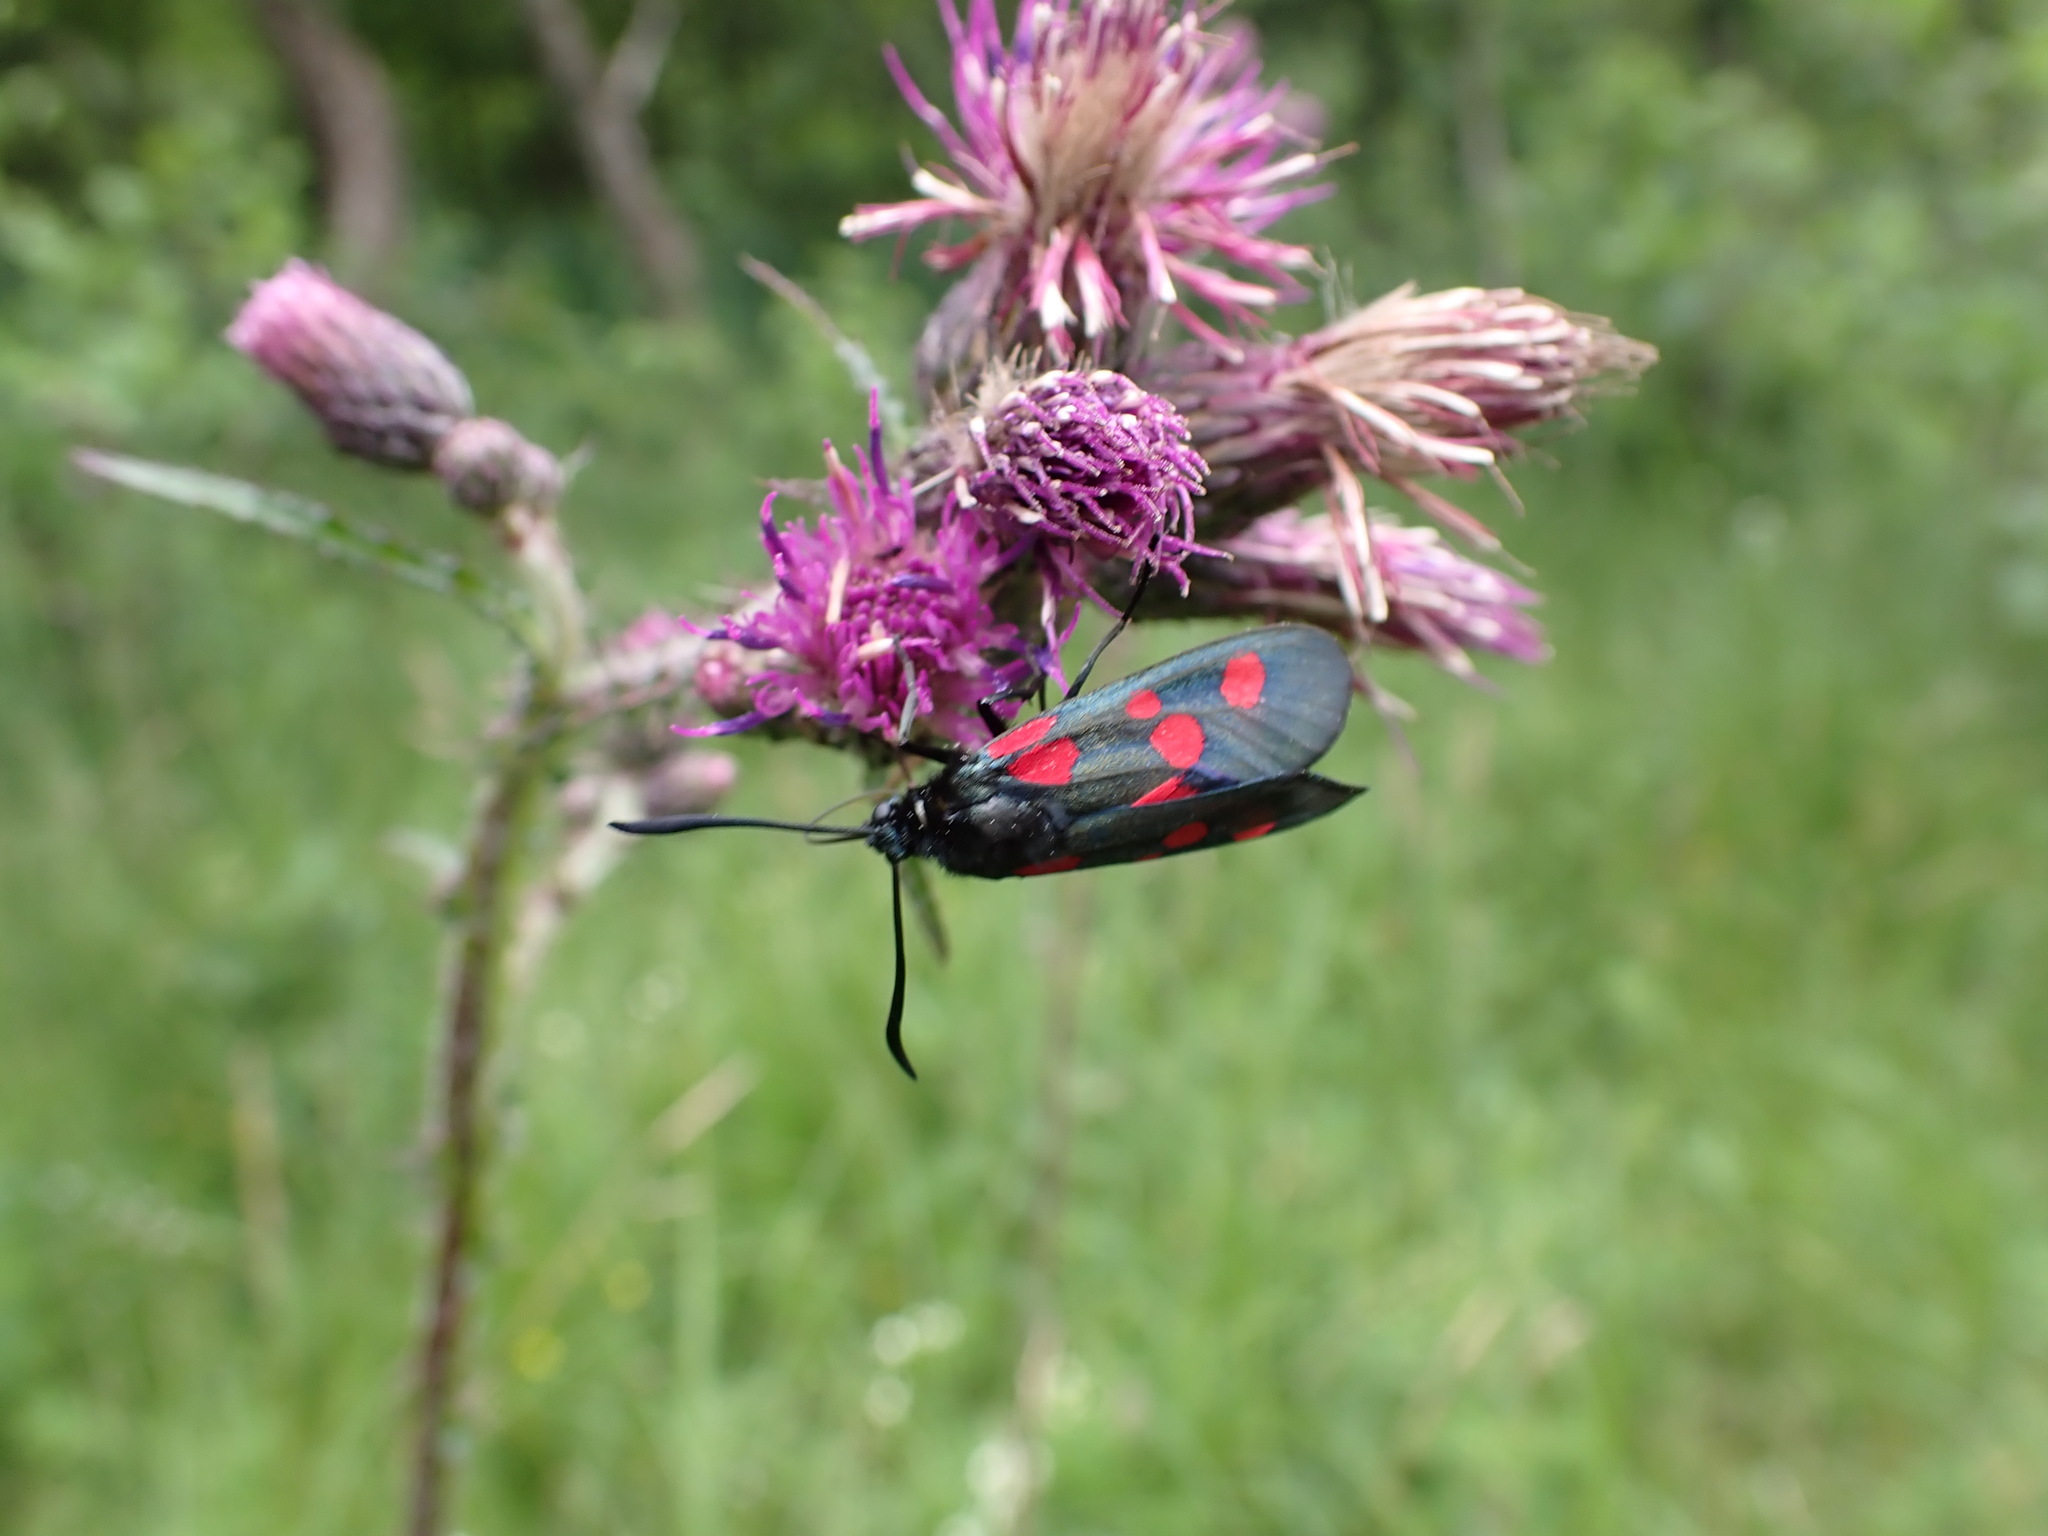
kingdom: Animalia
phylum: Arthropoda
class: Insecta
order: Lepidoptera
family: Zygaenidae
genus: Zygaena
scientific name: Zygaena lonicerae
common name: Narrow-bordered five-spot burnet
